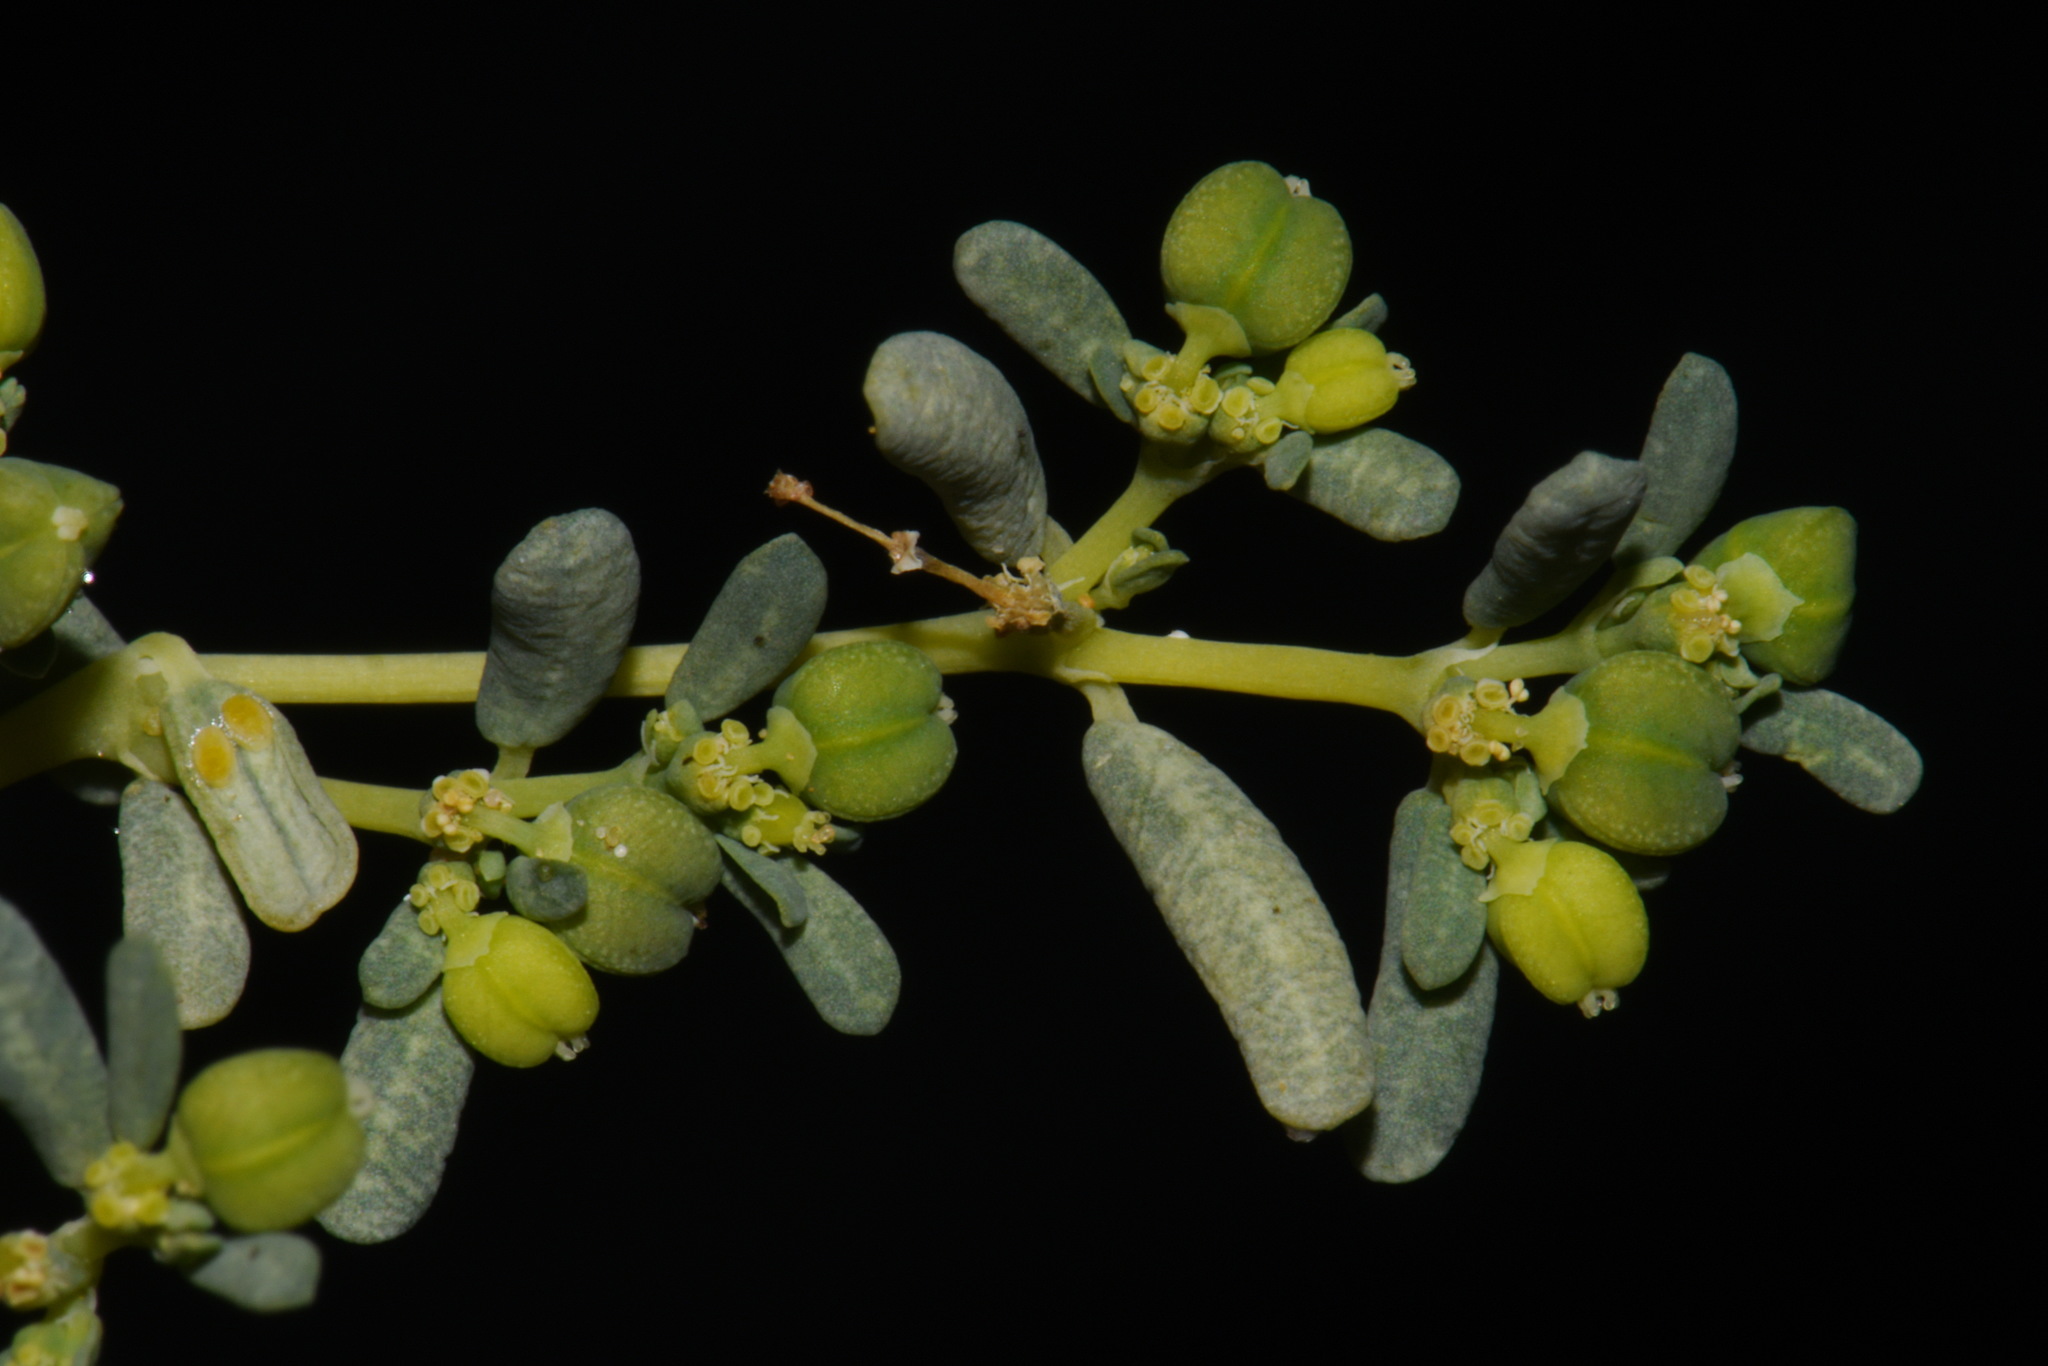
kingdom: Plantae
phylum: Tracheophyta
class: Magnoliopsida
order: Malpighiales
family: Euphorbiaceae
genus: Euphorbia
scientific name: Euphorbia golondrina
